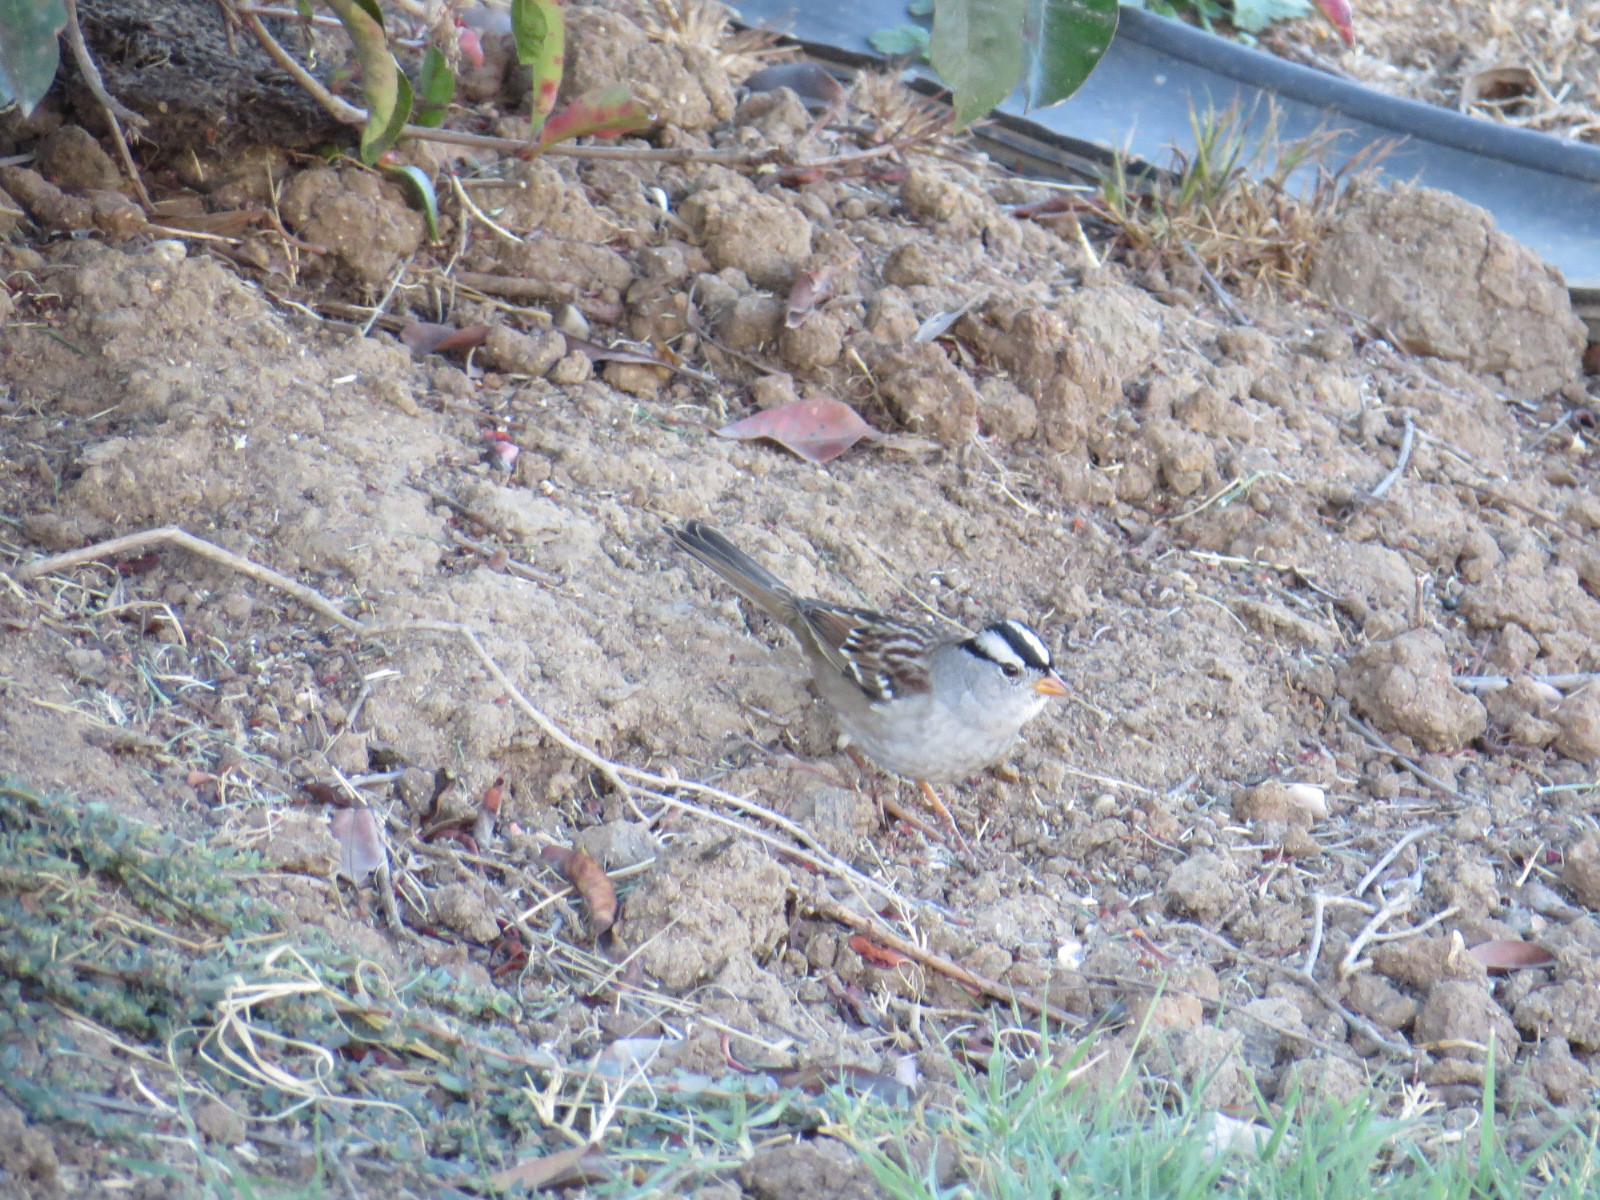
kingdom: Animalia
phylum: Chordata
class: Aves
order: Passeriformes
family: Passerellidae
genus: Zonotrichia
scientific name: Zonotrichia leucophrys
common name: White-crowned sparrow
